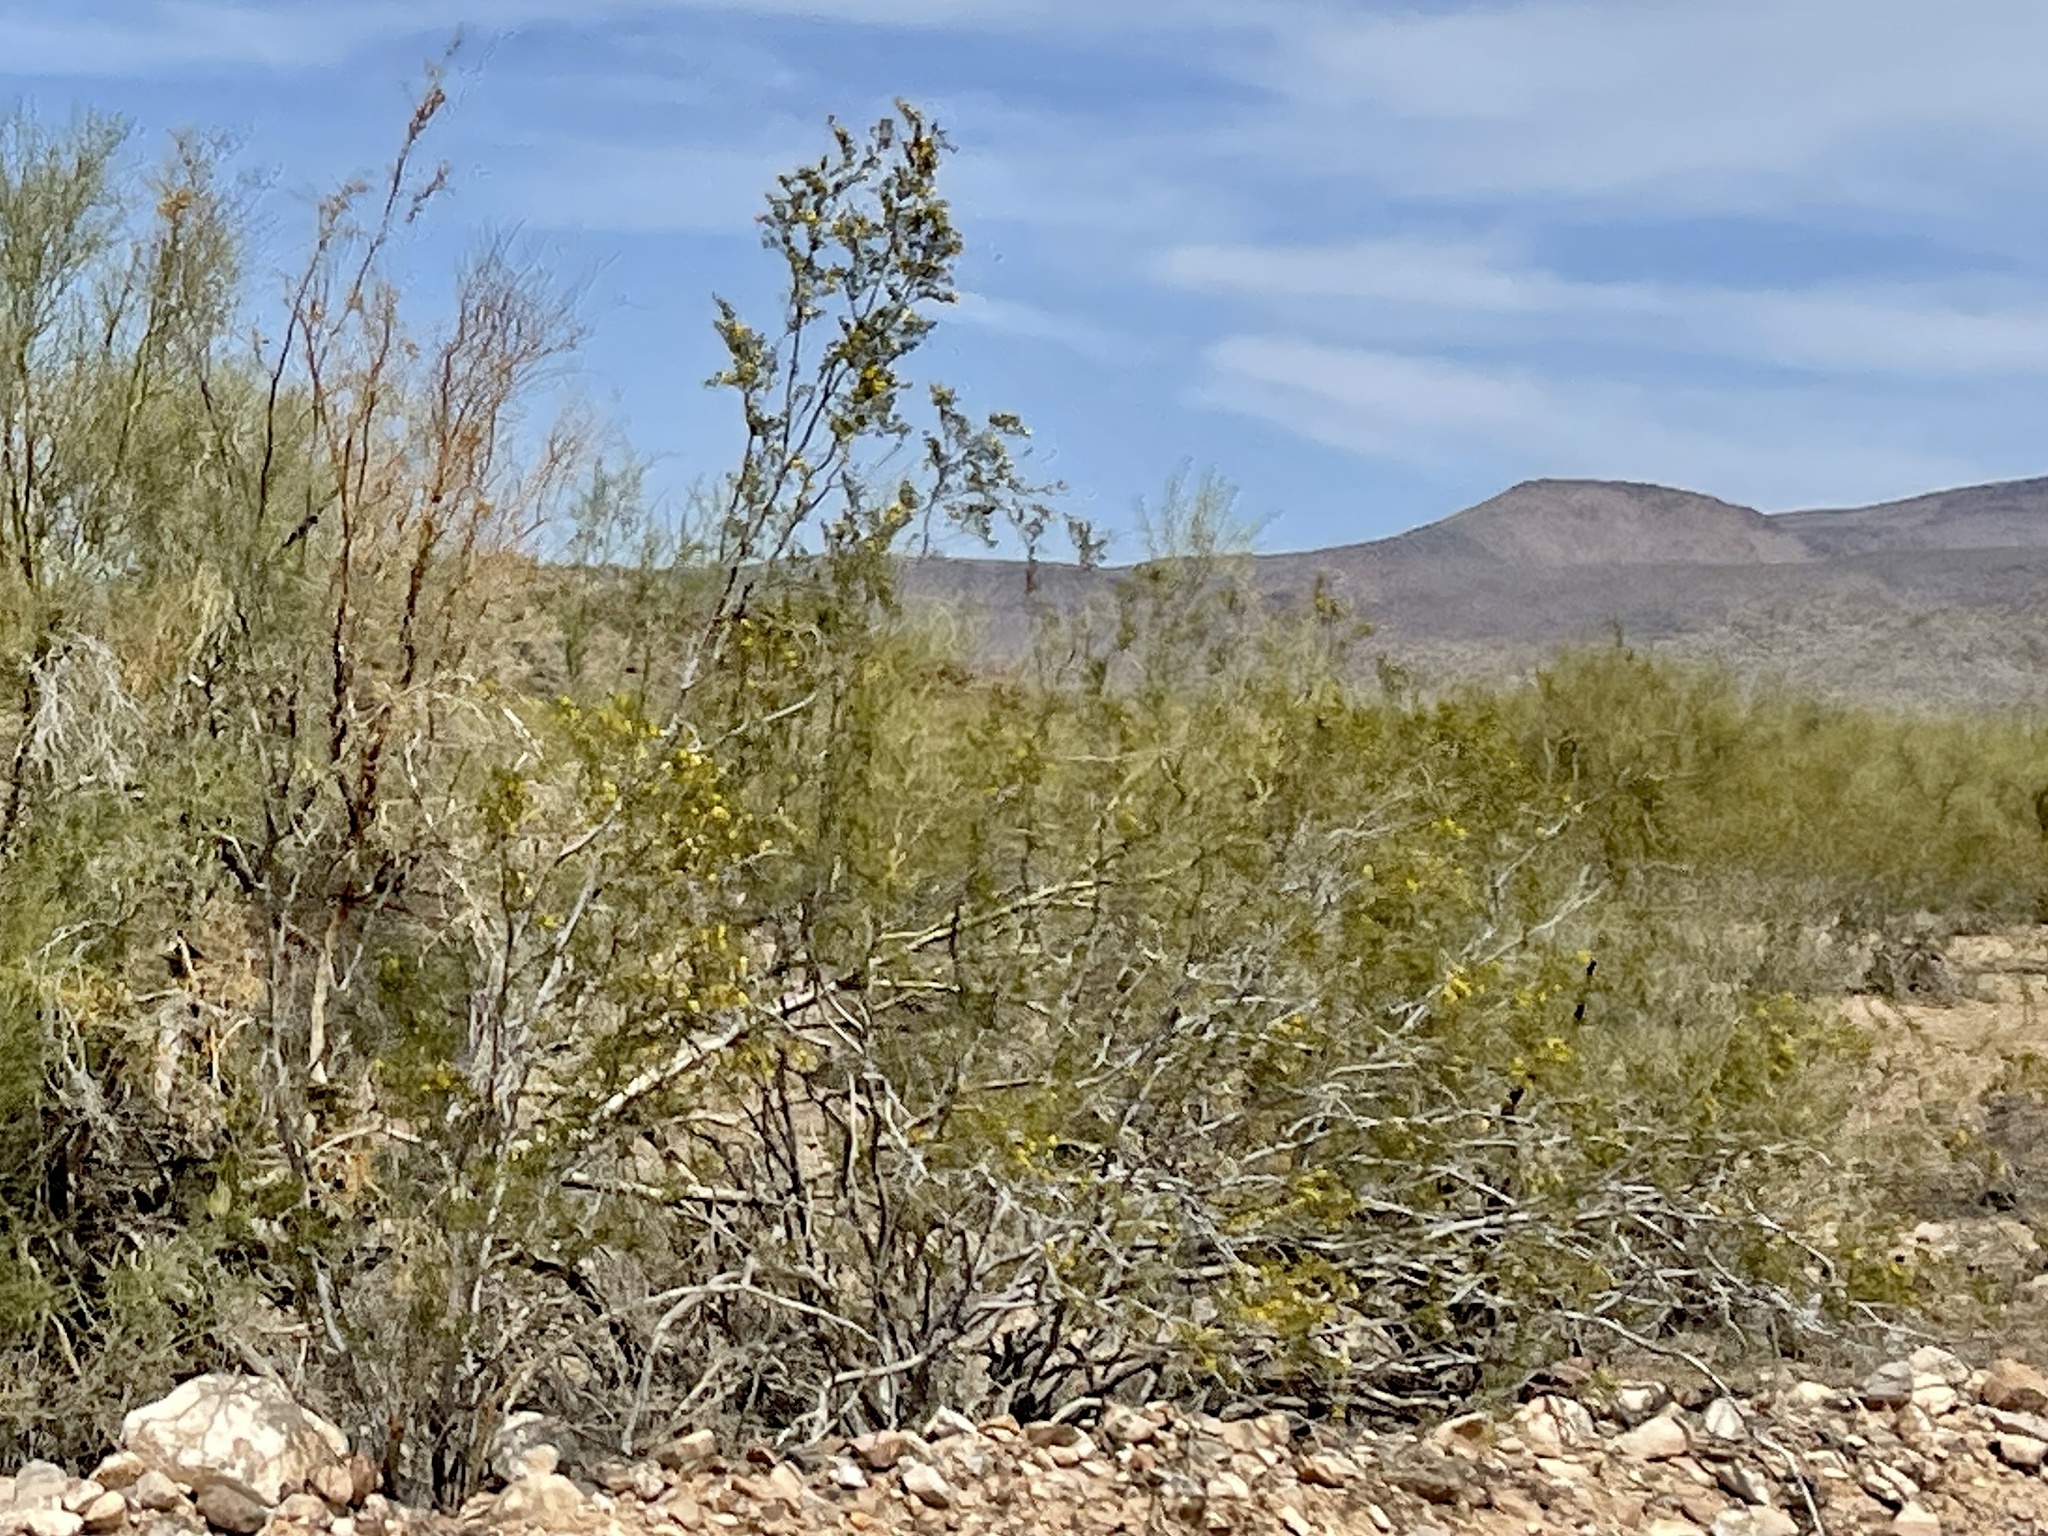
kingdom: Plantae
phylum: Tracheophyta
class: Magnoliopsida
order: Zygophyllales
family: Zygophyllaceae
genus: Larrea
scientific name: Larrea tridentata
